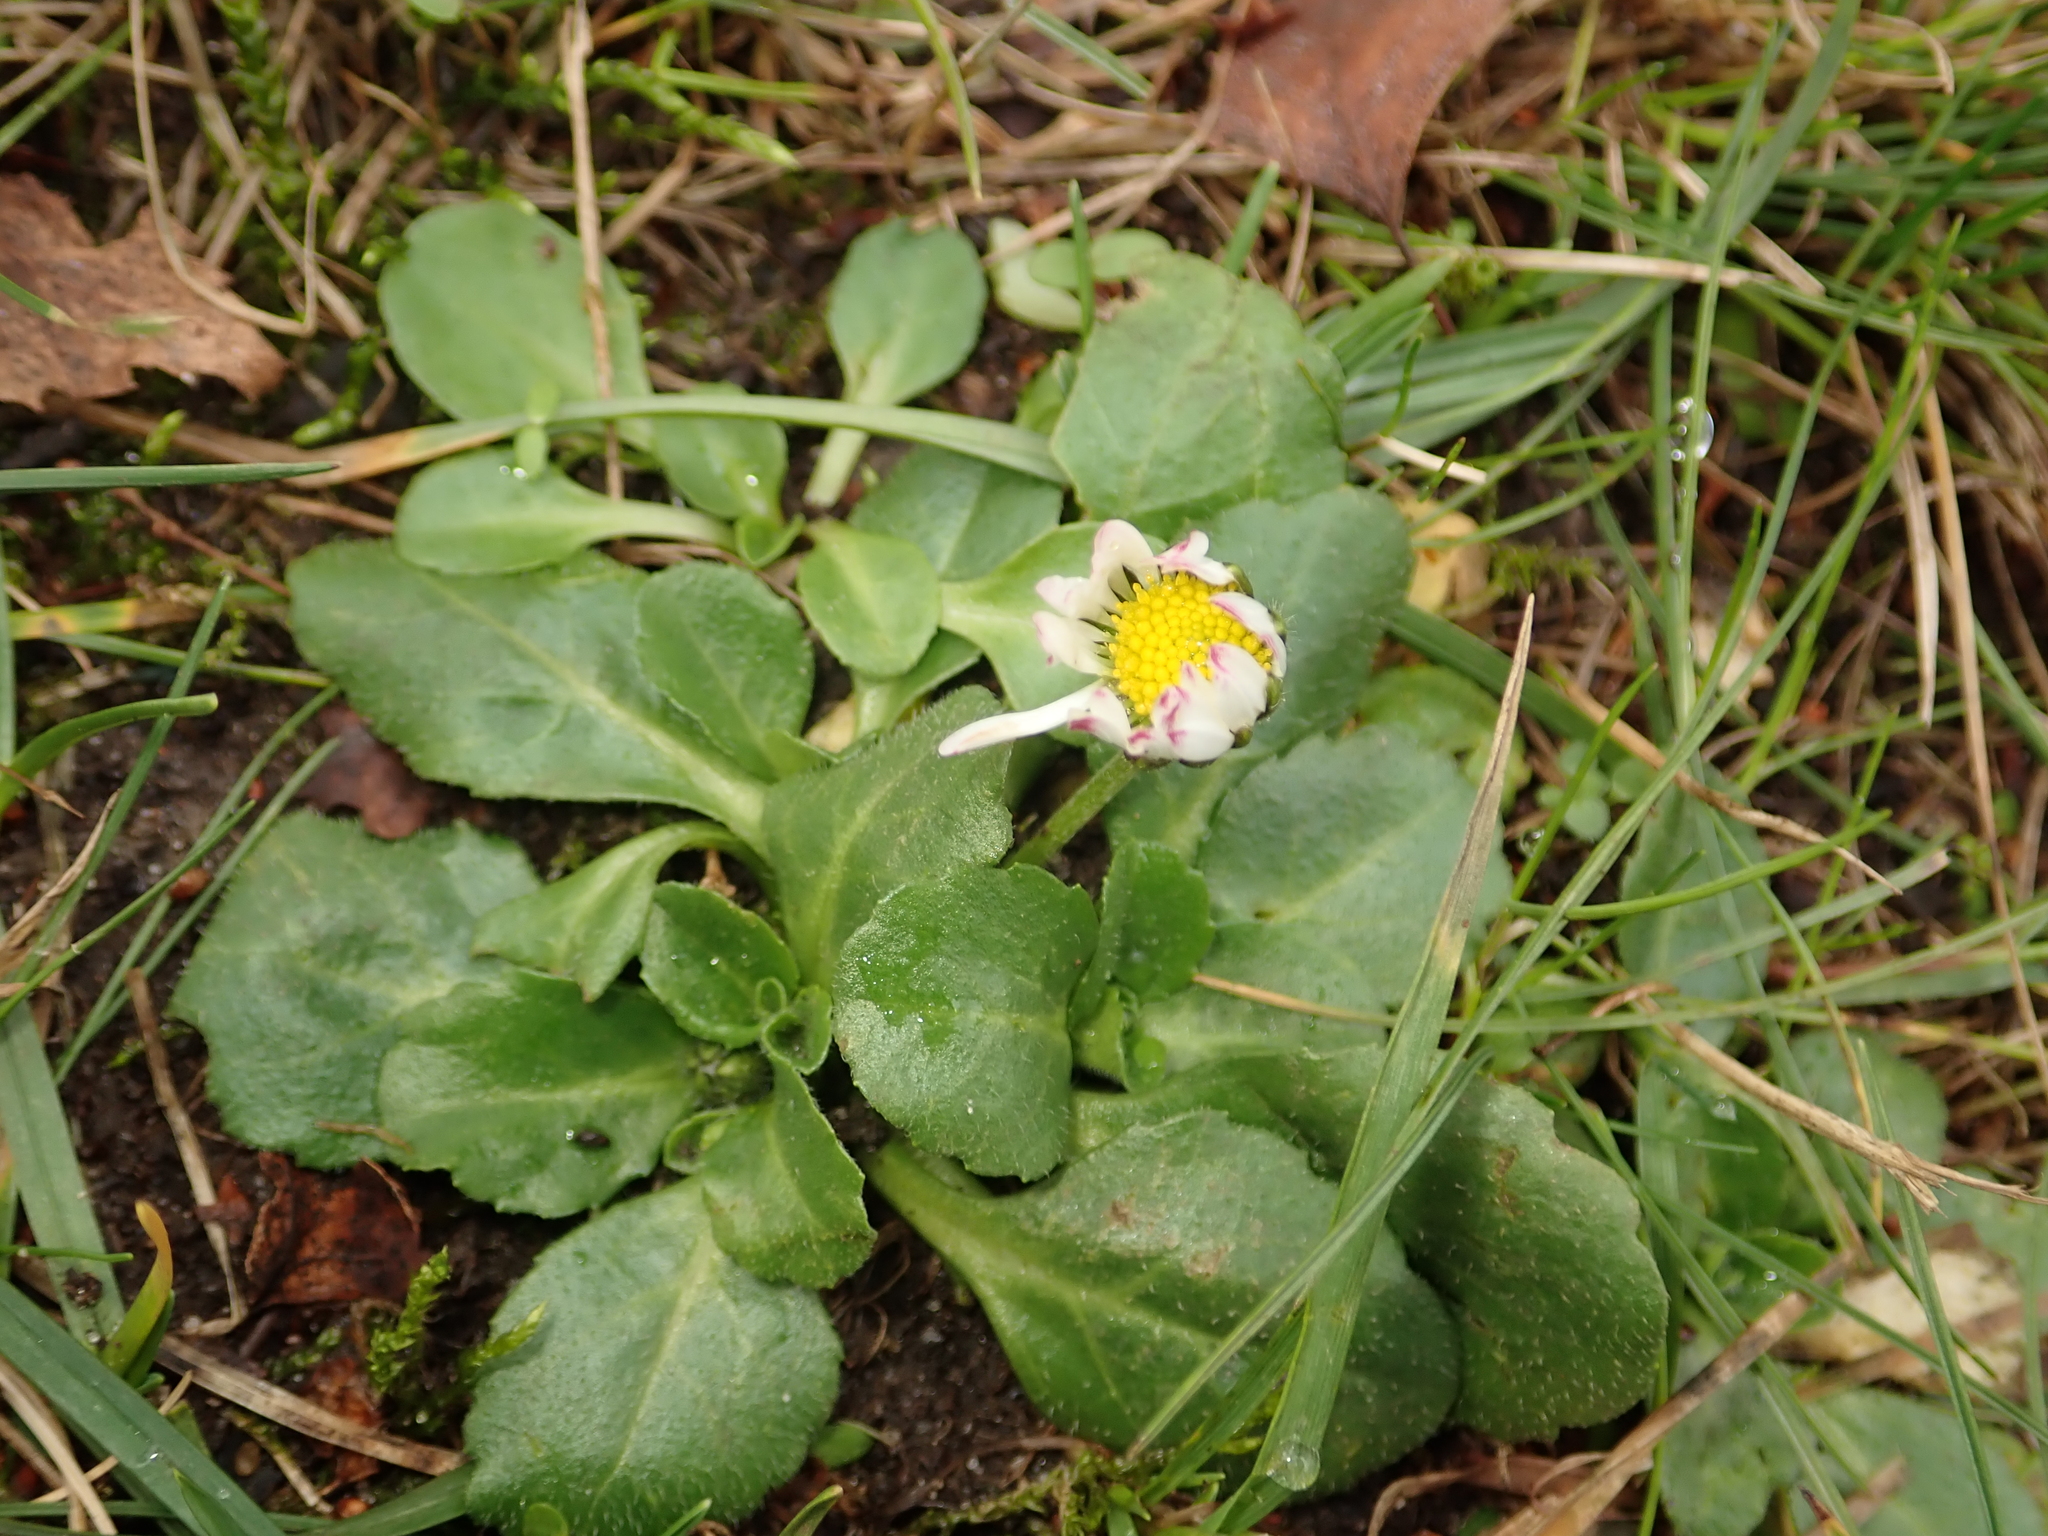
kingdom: Plantae
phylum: Tracheophyta
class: Magnoliopsida
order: Asterales
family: Asteraceae
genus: Bellis
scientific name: Bellis perennis
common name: Lawndaisy
